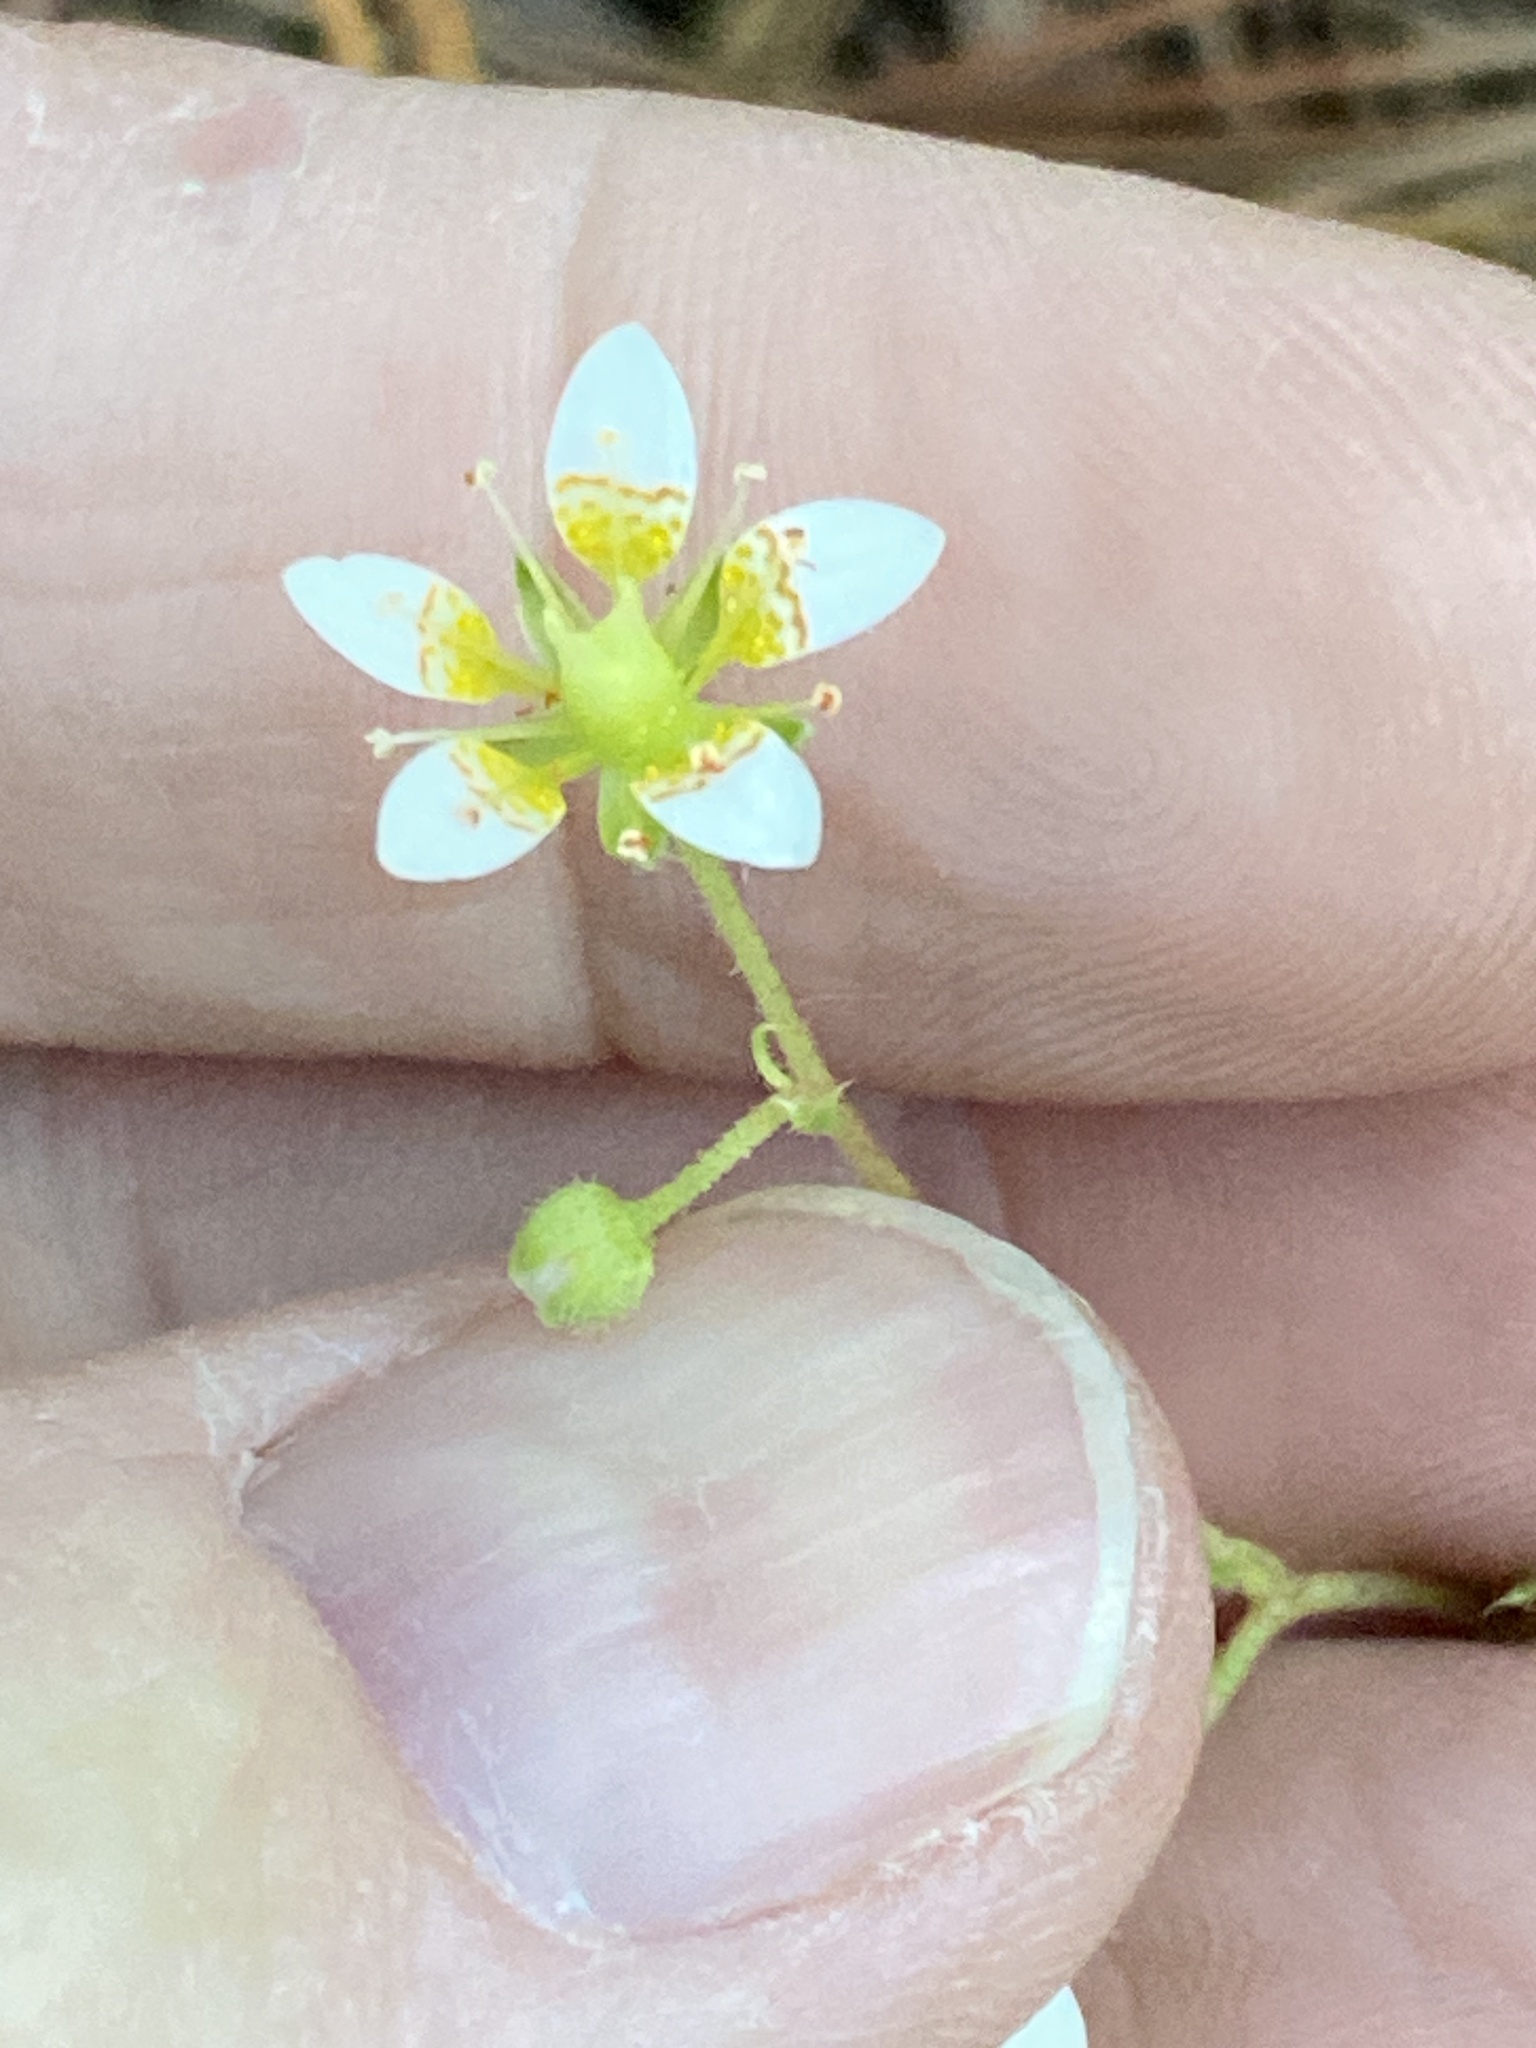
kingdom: Plantae
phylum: Tracheophyta
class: Magnoliopsida
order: Saxifragales
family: Saxifragaceae
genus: Saxifraga
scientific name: Saxifraga gemmipara
